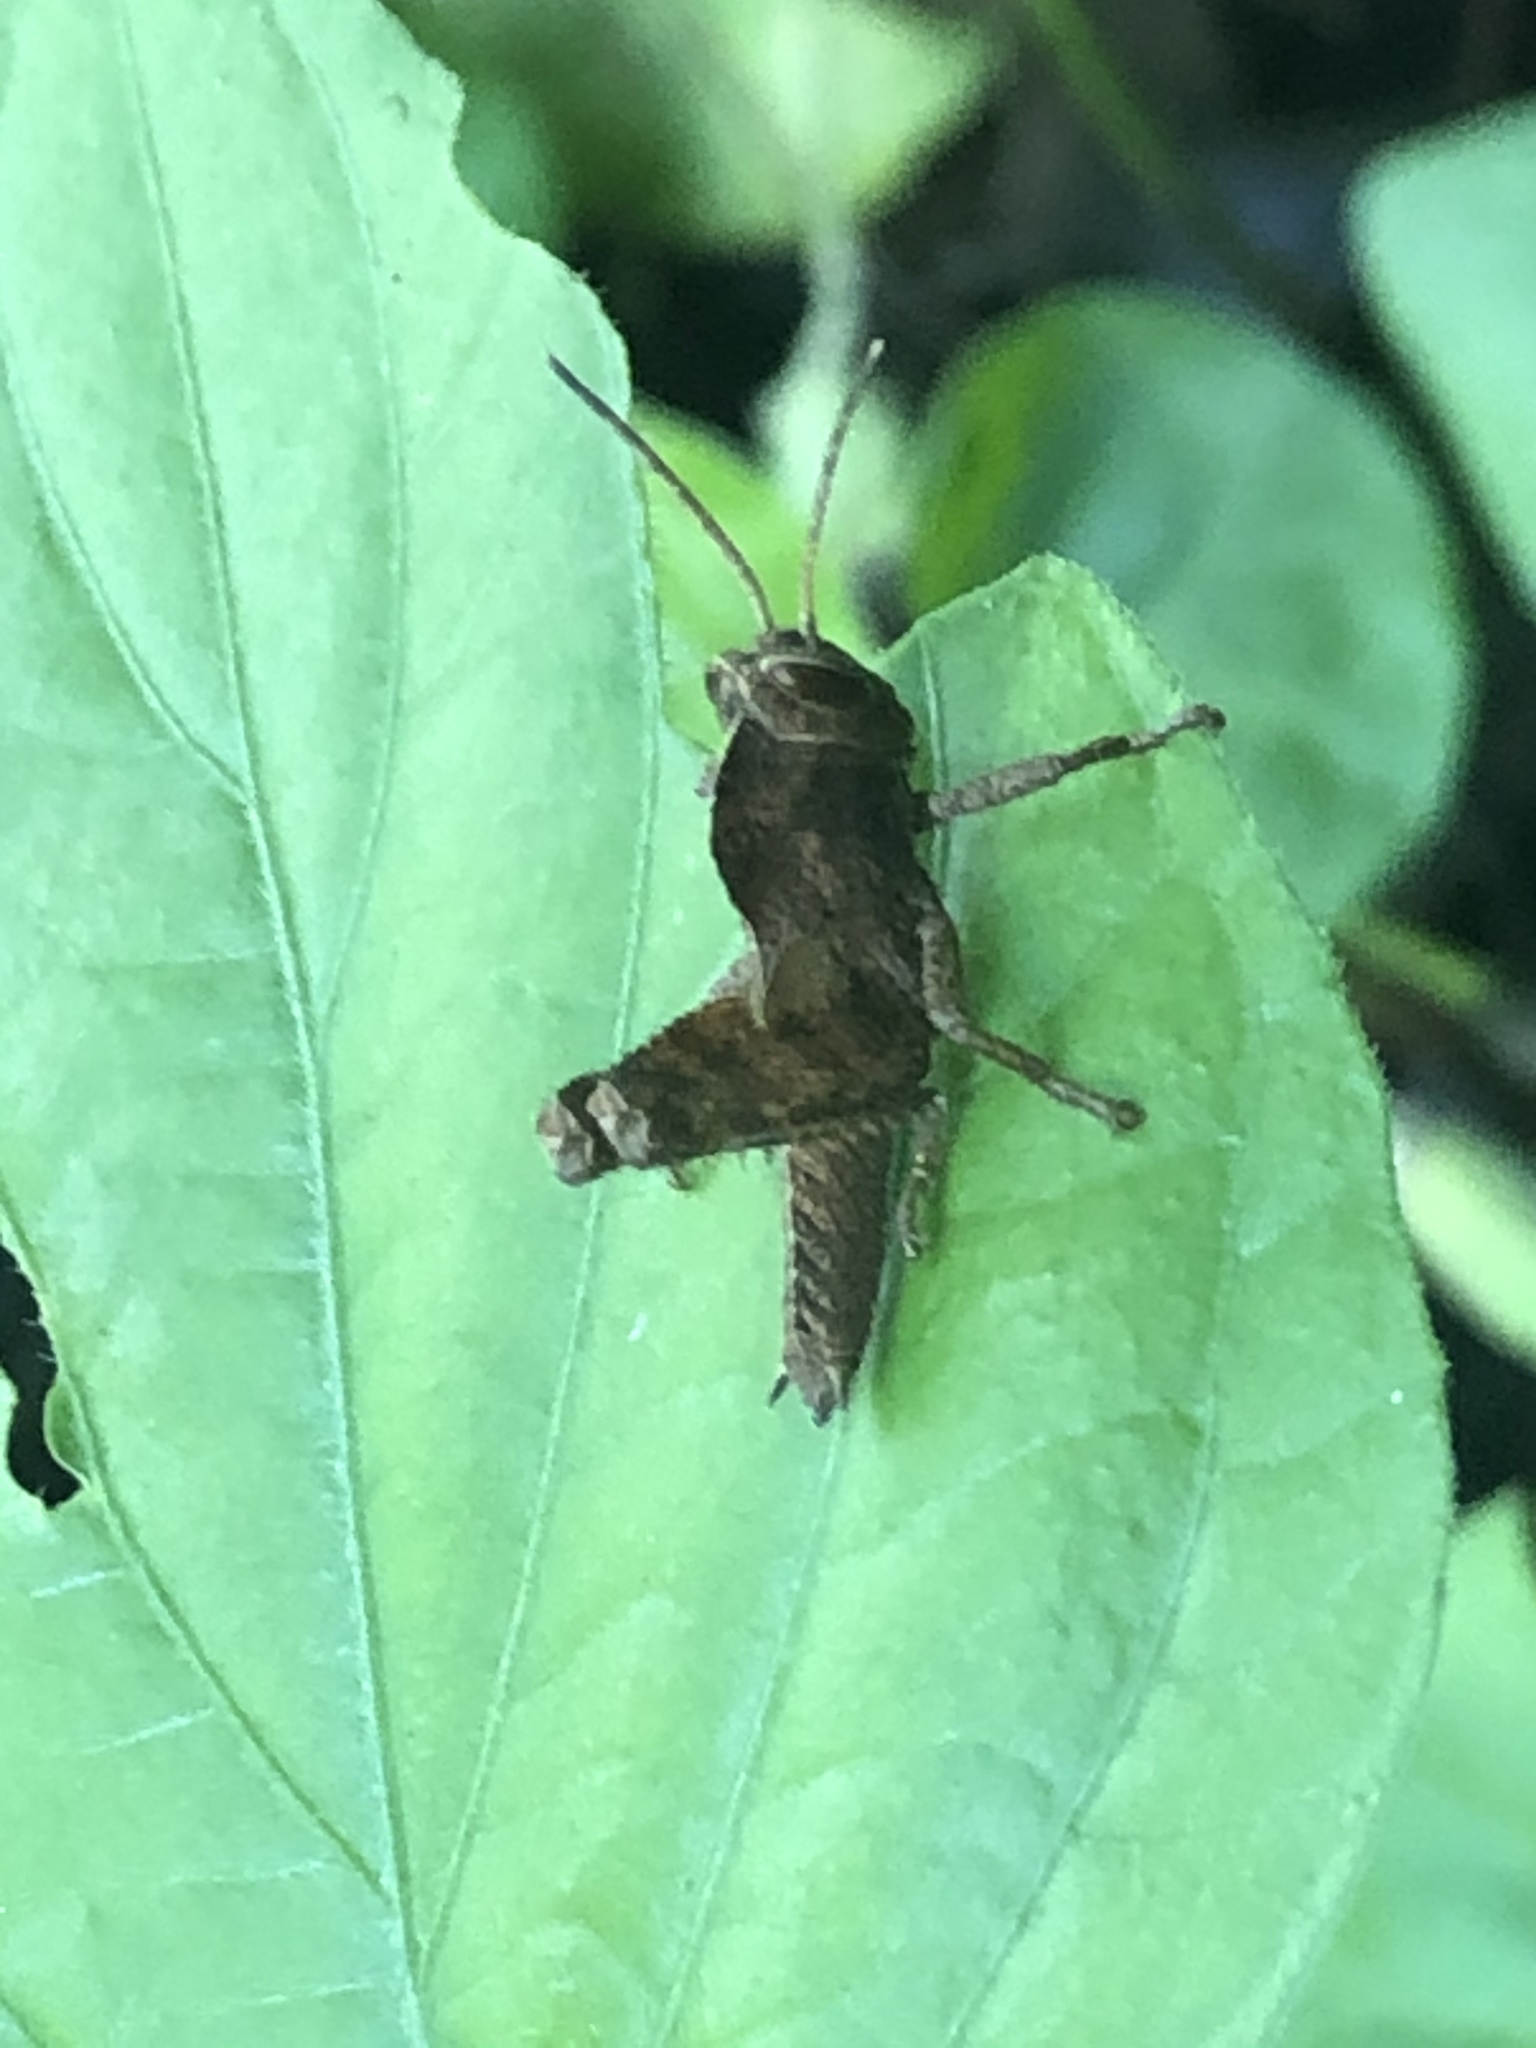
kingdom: Animalia
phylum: Arthropoda
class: Insecta
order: Orthoptera
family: Acrididae
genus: Abisares
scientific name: Abisares viridipenne
